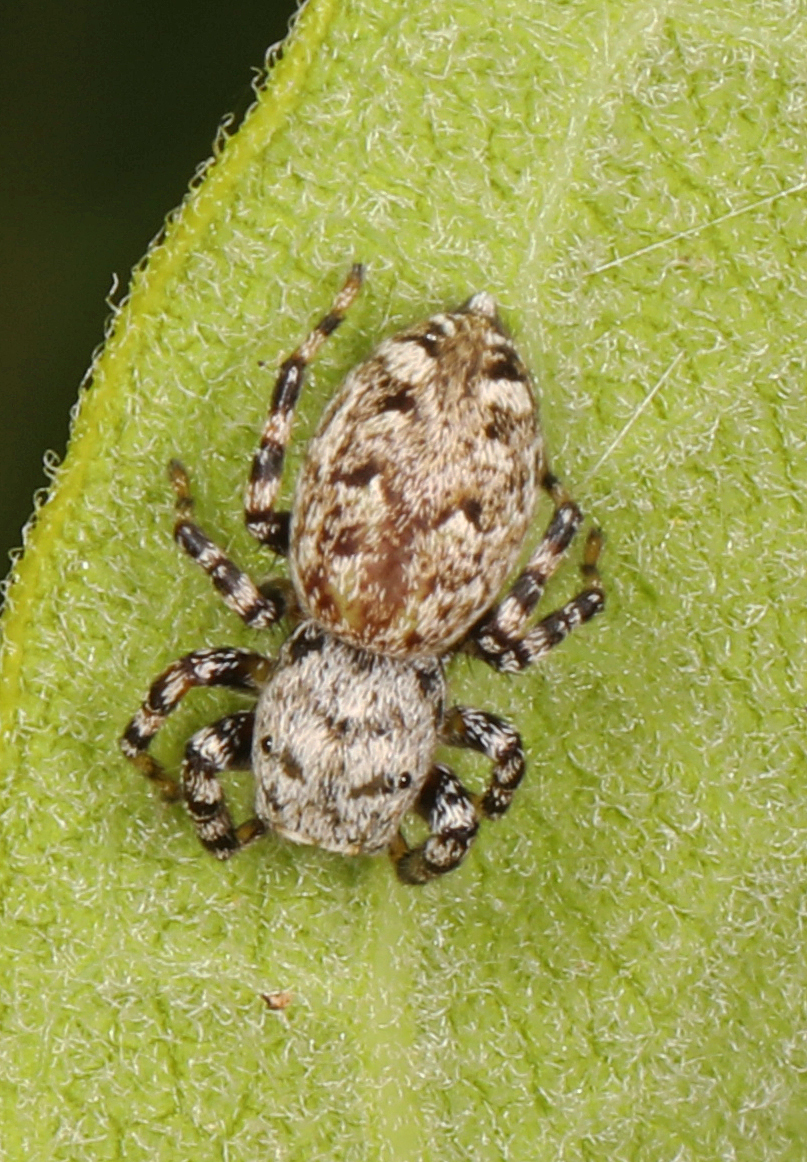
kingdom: Animalia
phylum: Arthropoda
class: Arachnida
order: Araneae
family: Salticidae
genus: Pelegrina
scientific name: Pelegrina galathea
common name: Jumping spiders
